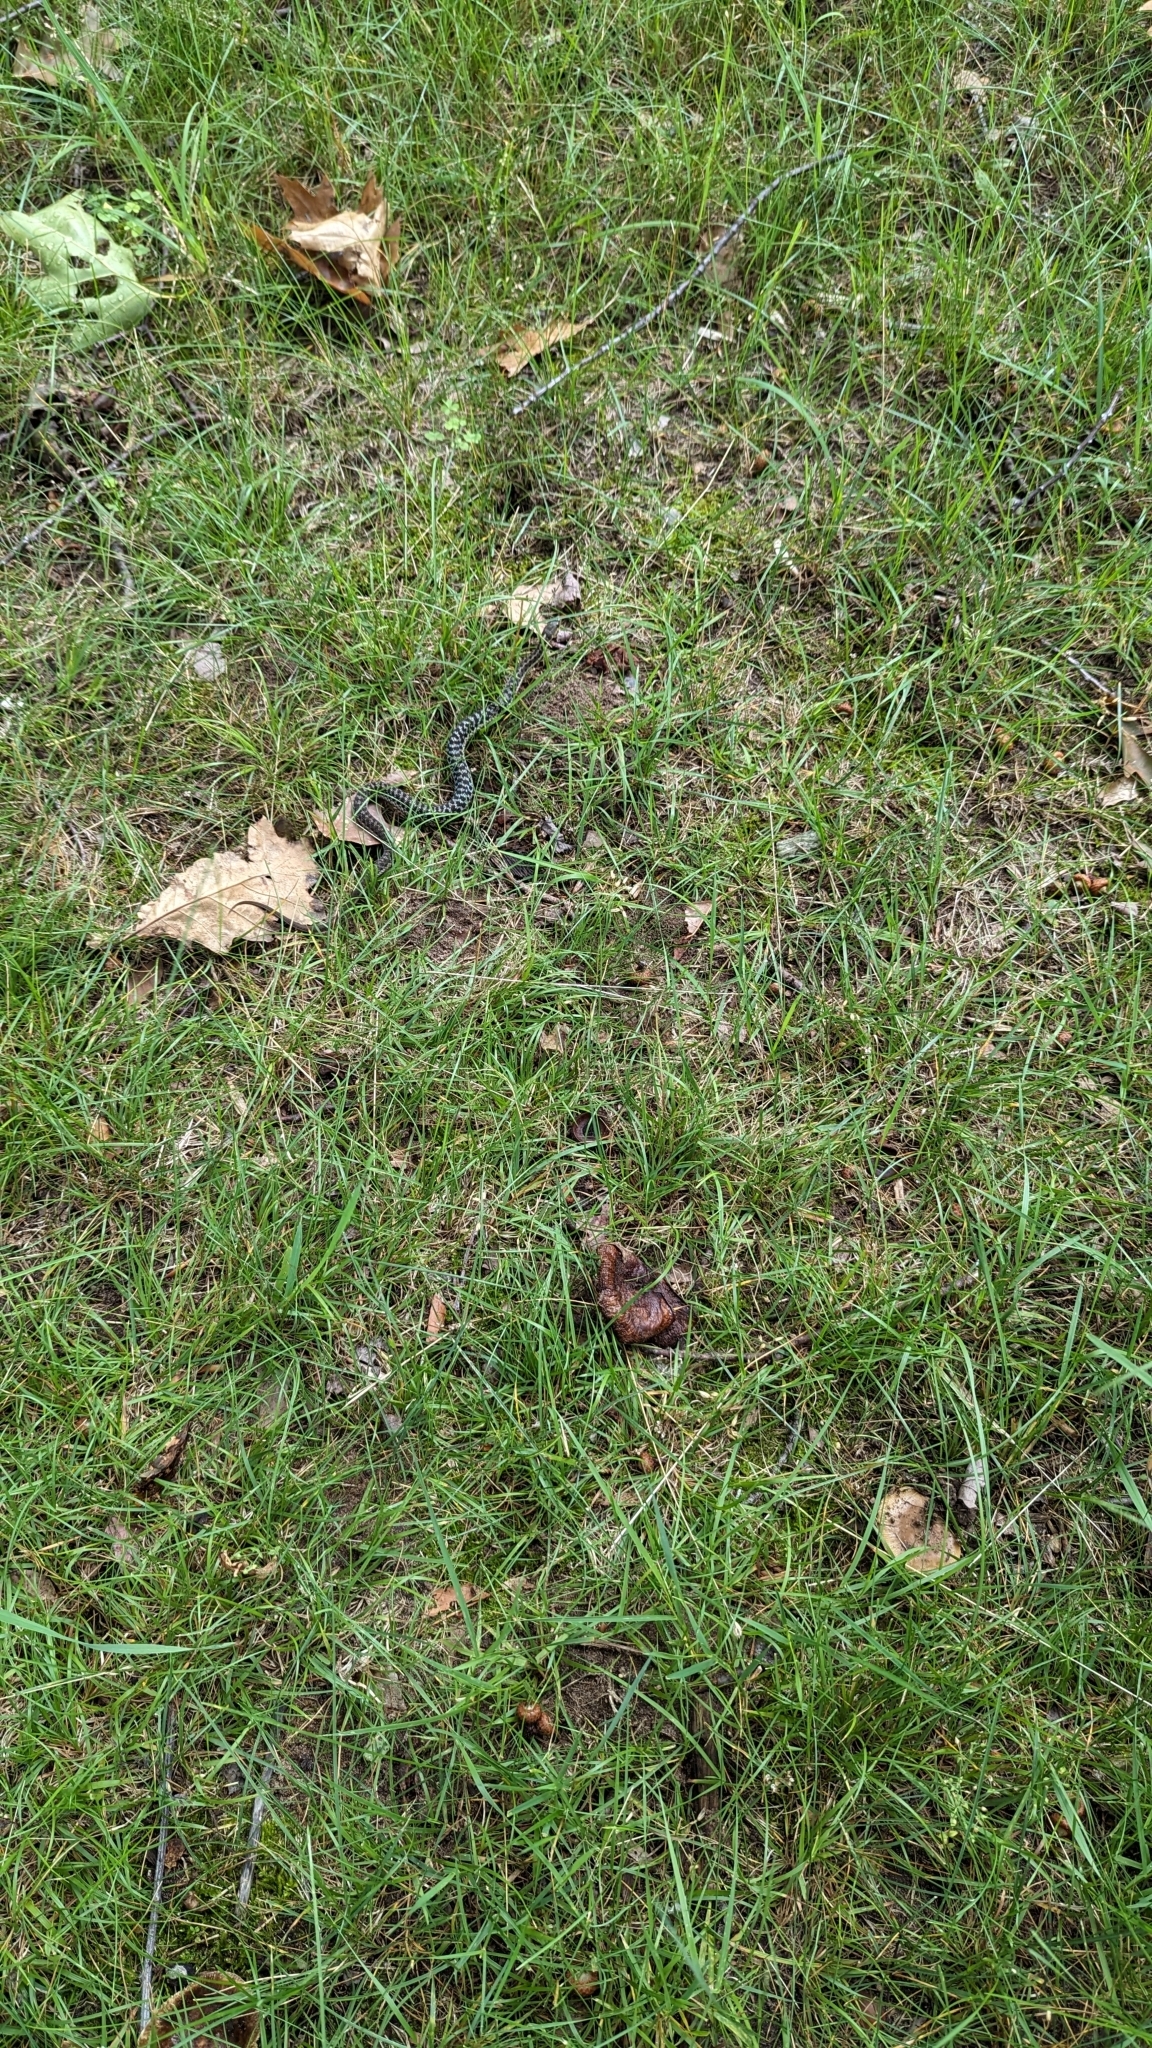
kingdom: Animalia
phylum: Chordata
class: Squamata
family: Colubridae
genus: Thamnophis
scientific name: Thamnophis sirtalis
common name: Common garter snake
